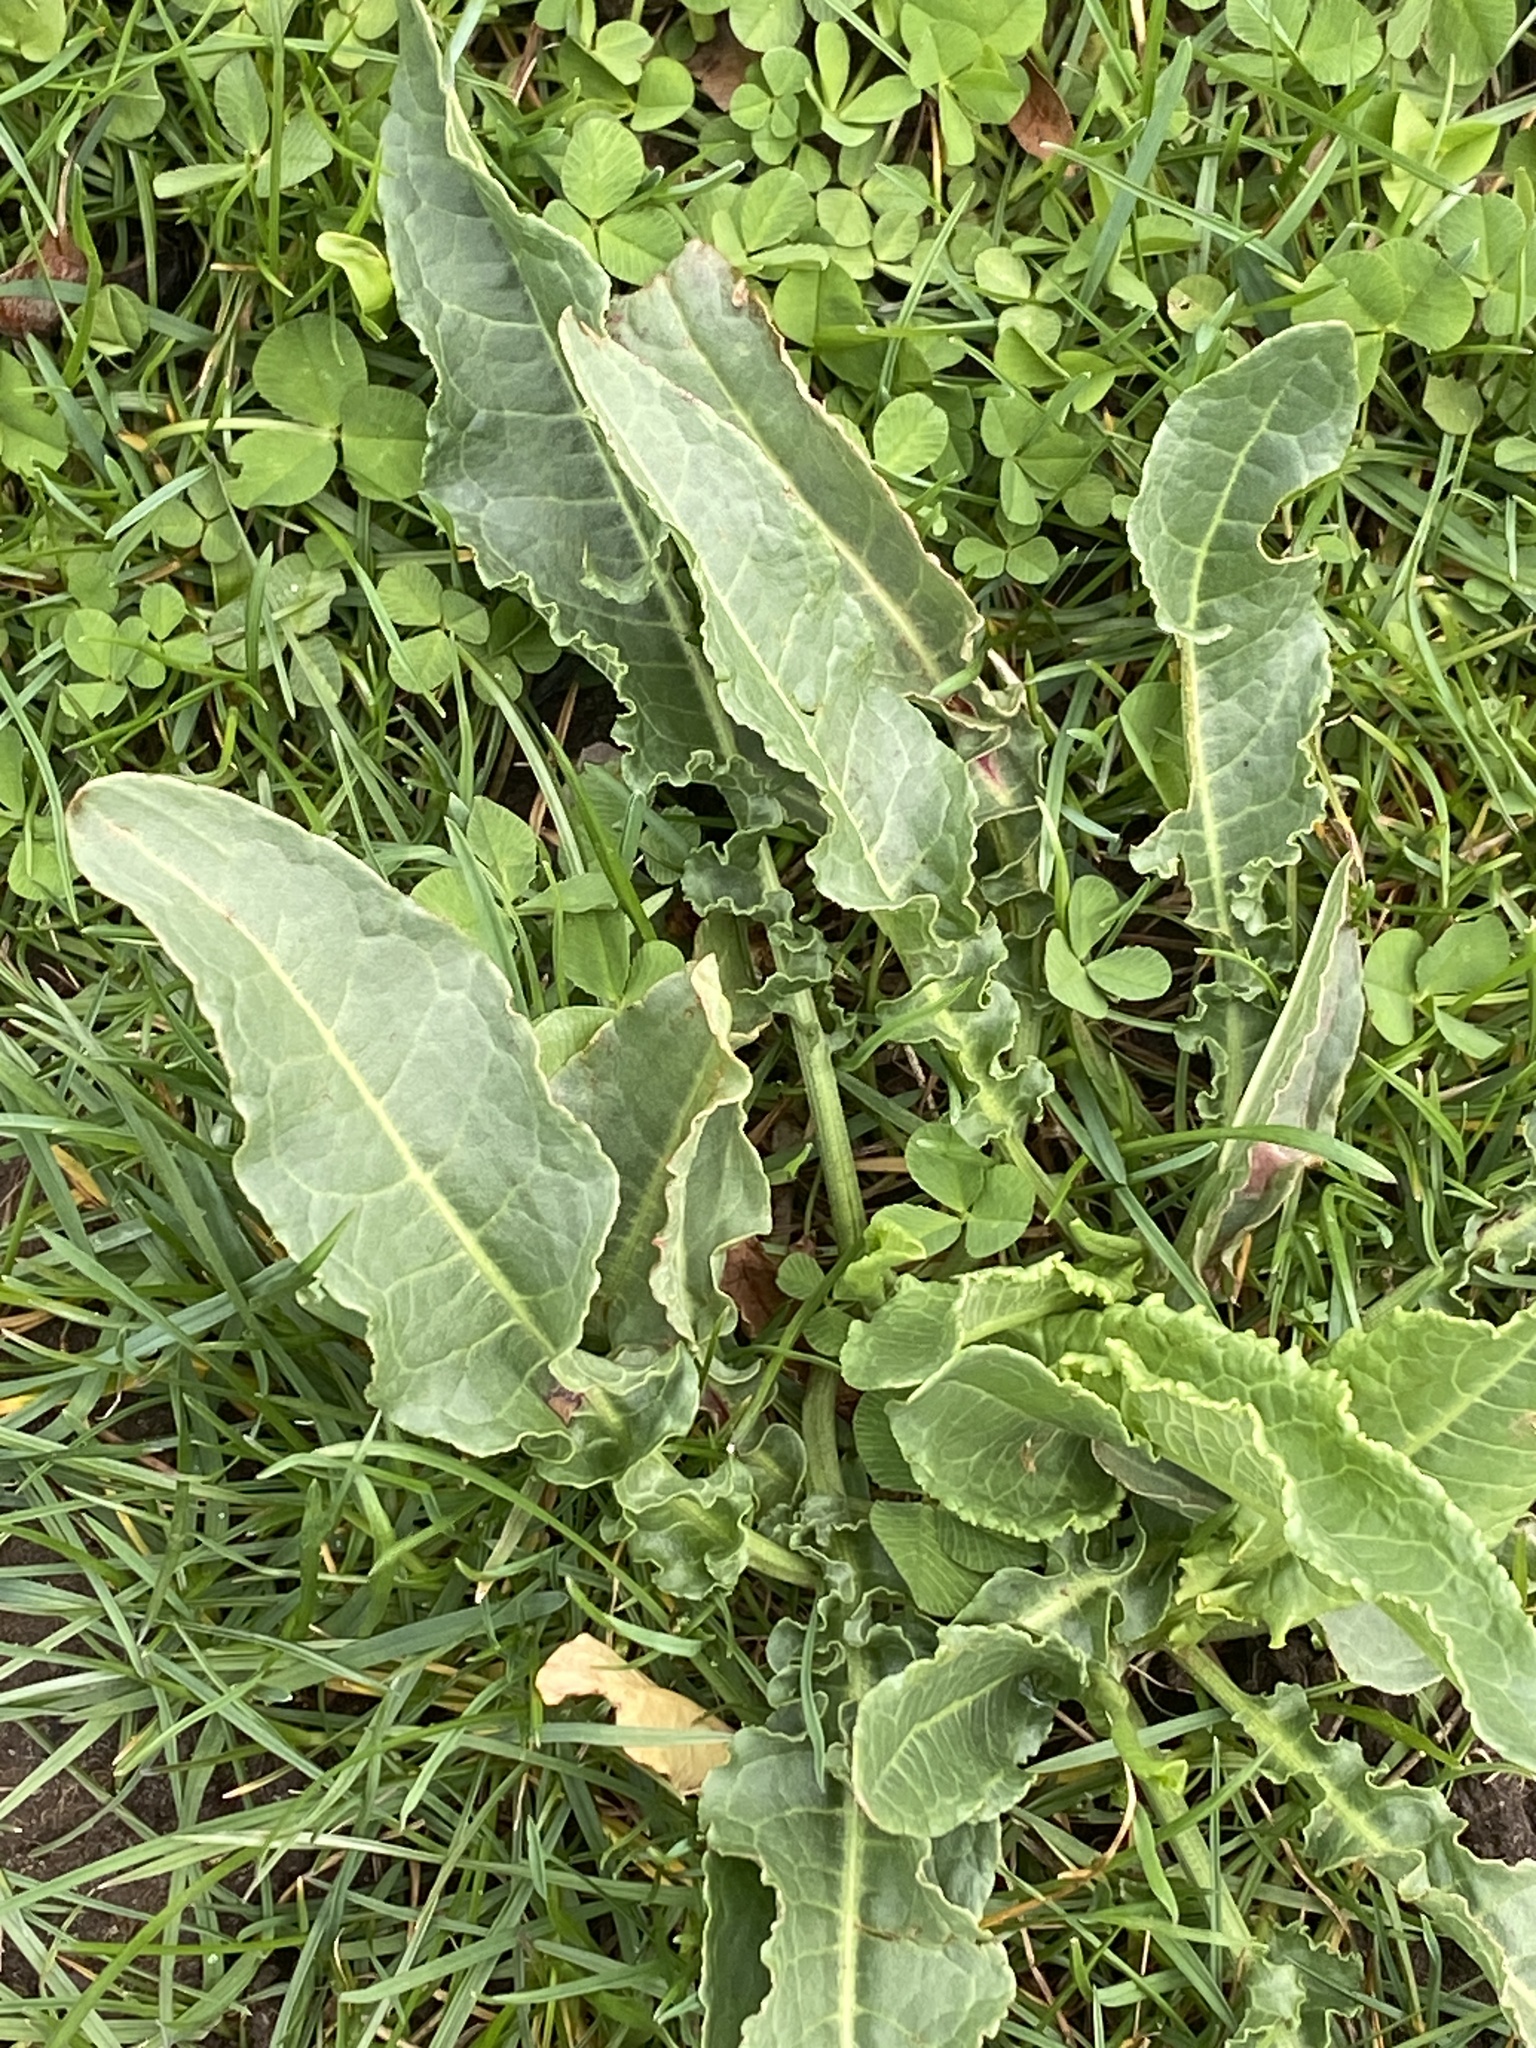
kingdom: Plantae
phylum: Tracheophyta
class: Magnoliopsida
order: Caryophyllales
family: Polygonaceae
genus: Rumex
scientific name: Rumex crispus
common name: Curled dock
